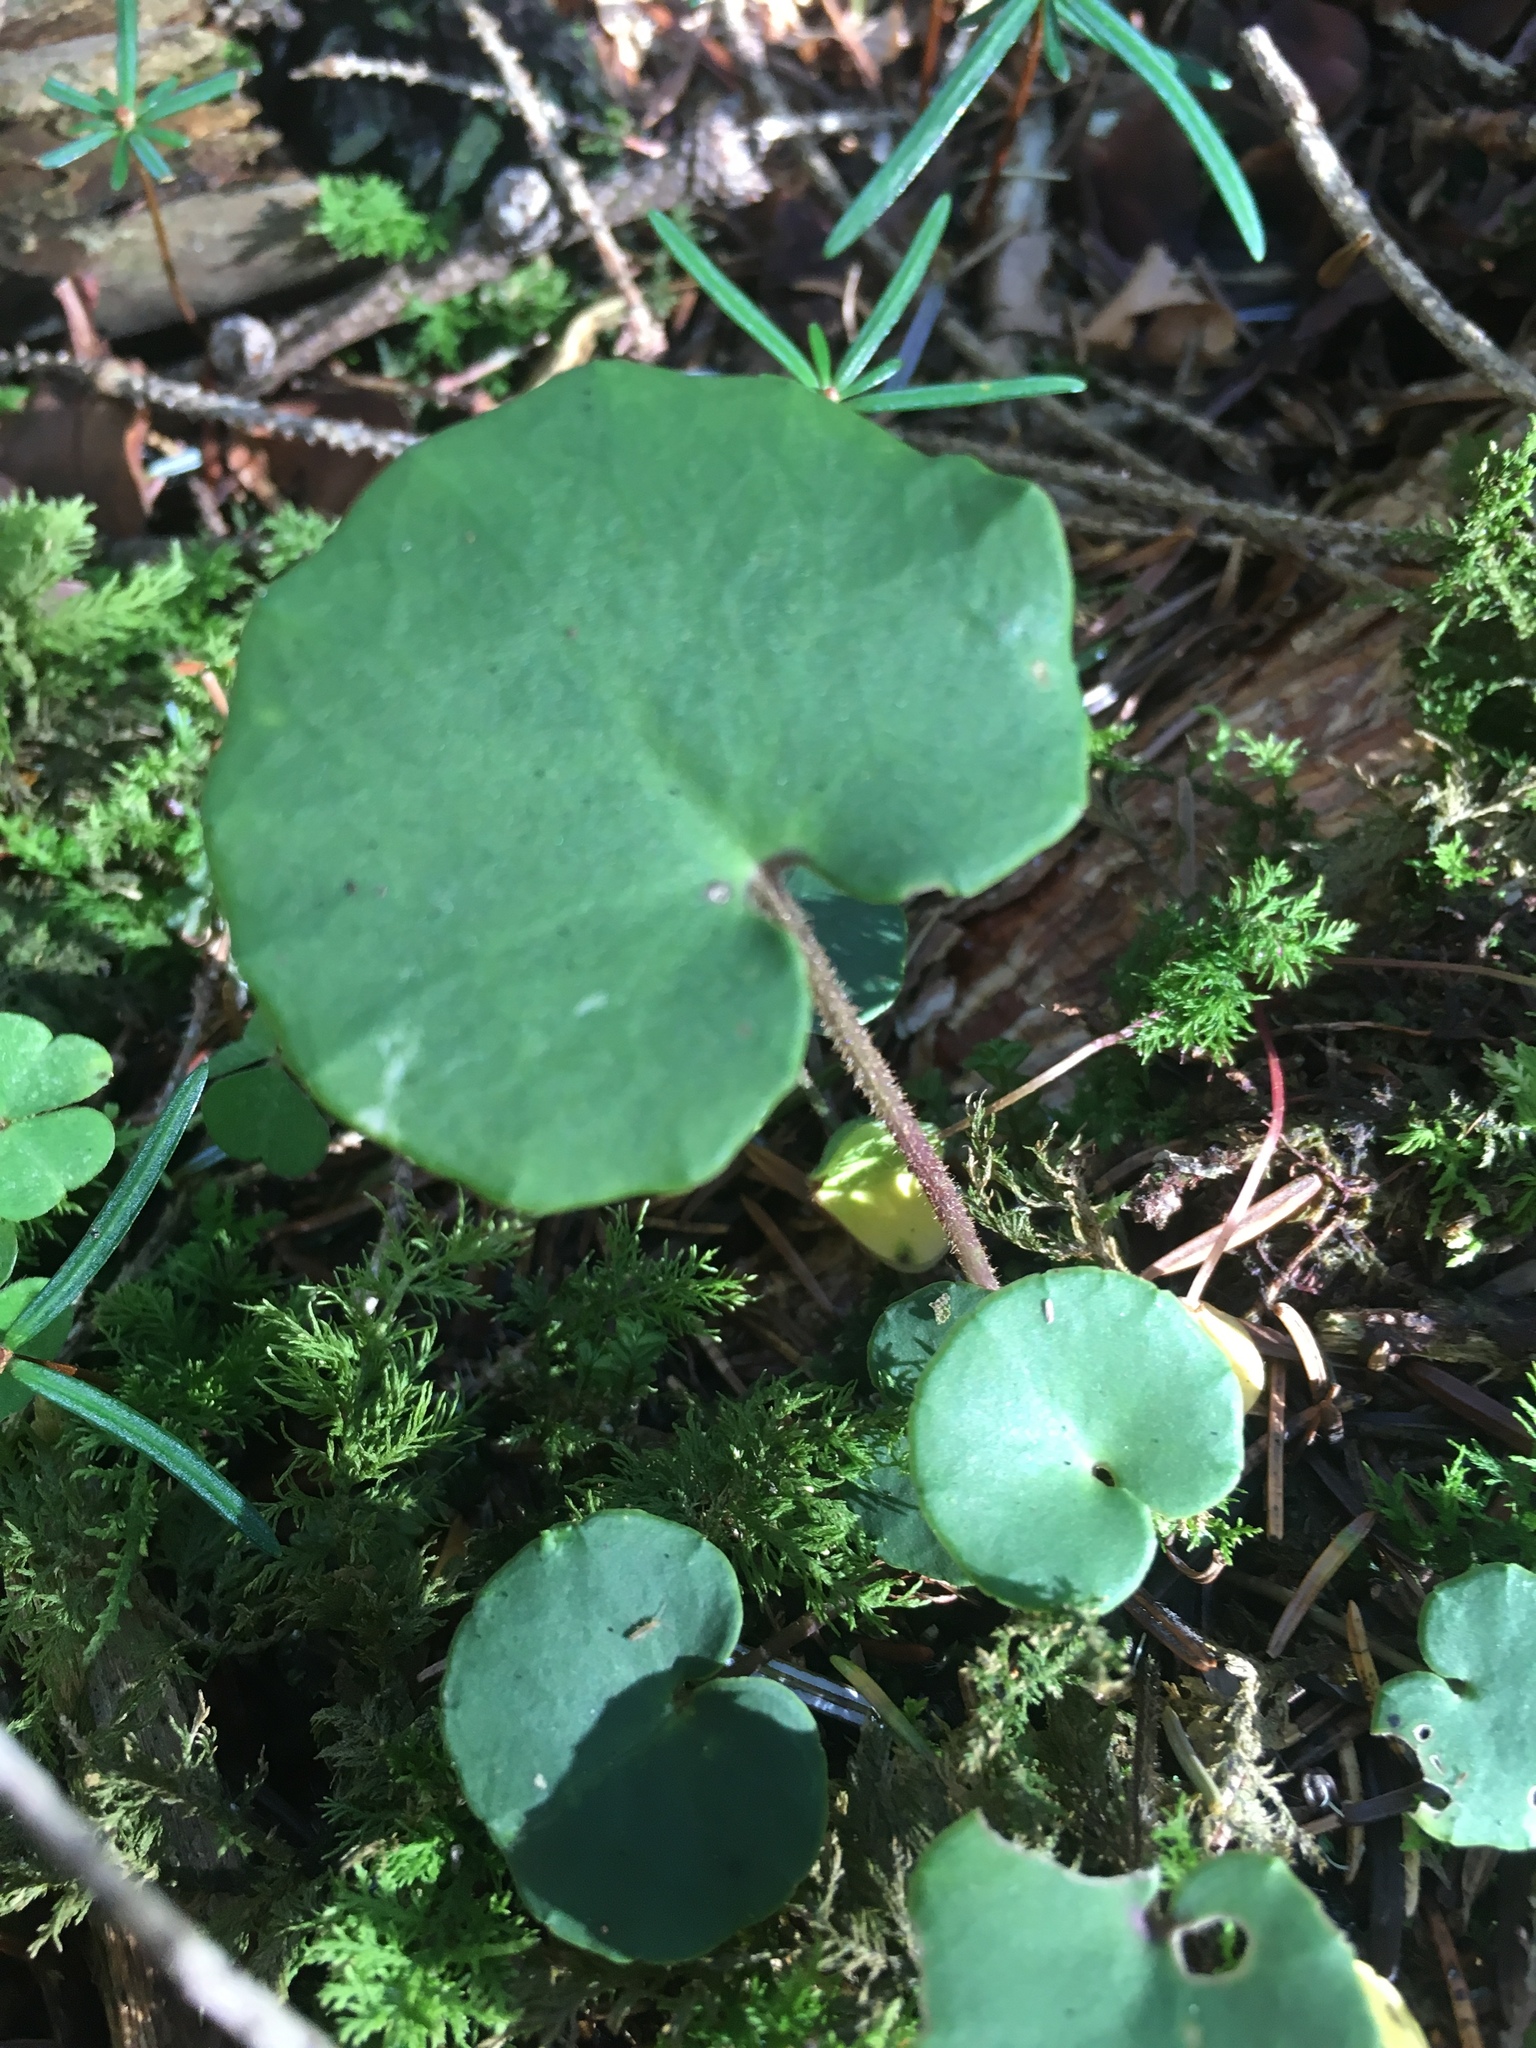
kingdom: Plantae
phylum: Tracheophyta
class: Magnoliopsida
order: Piperales
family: Aristolochiaceae
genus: Asarum
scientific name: Asarum europaeum
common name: Asarabacca
